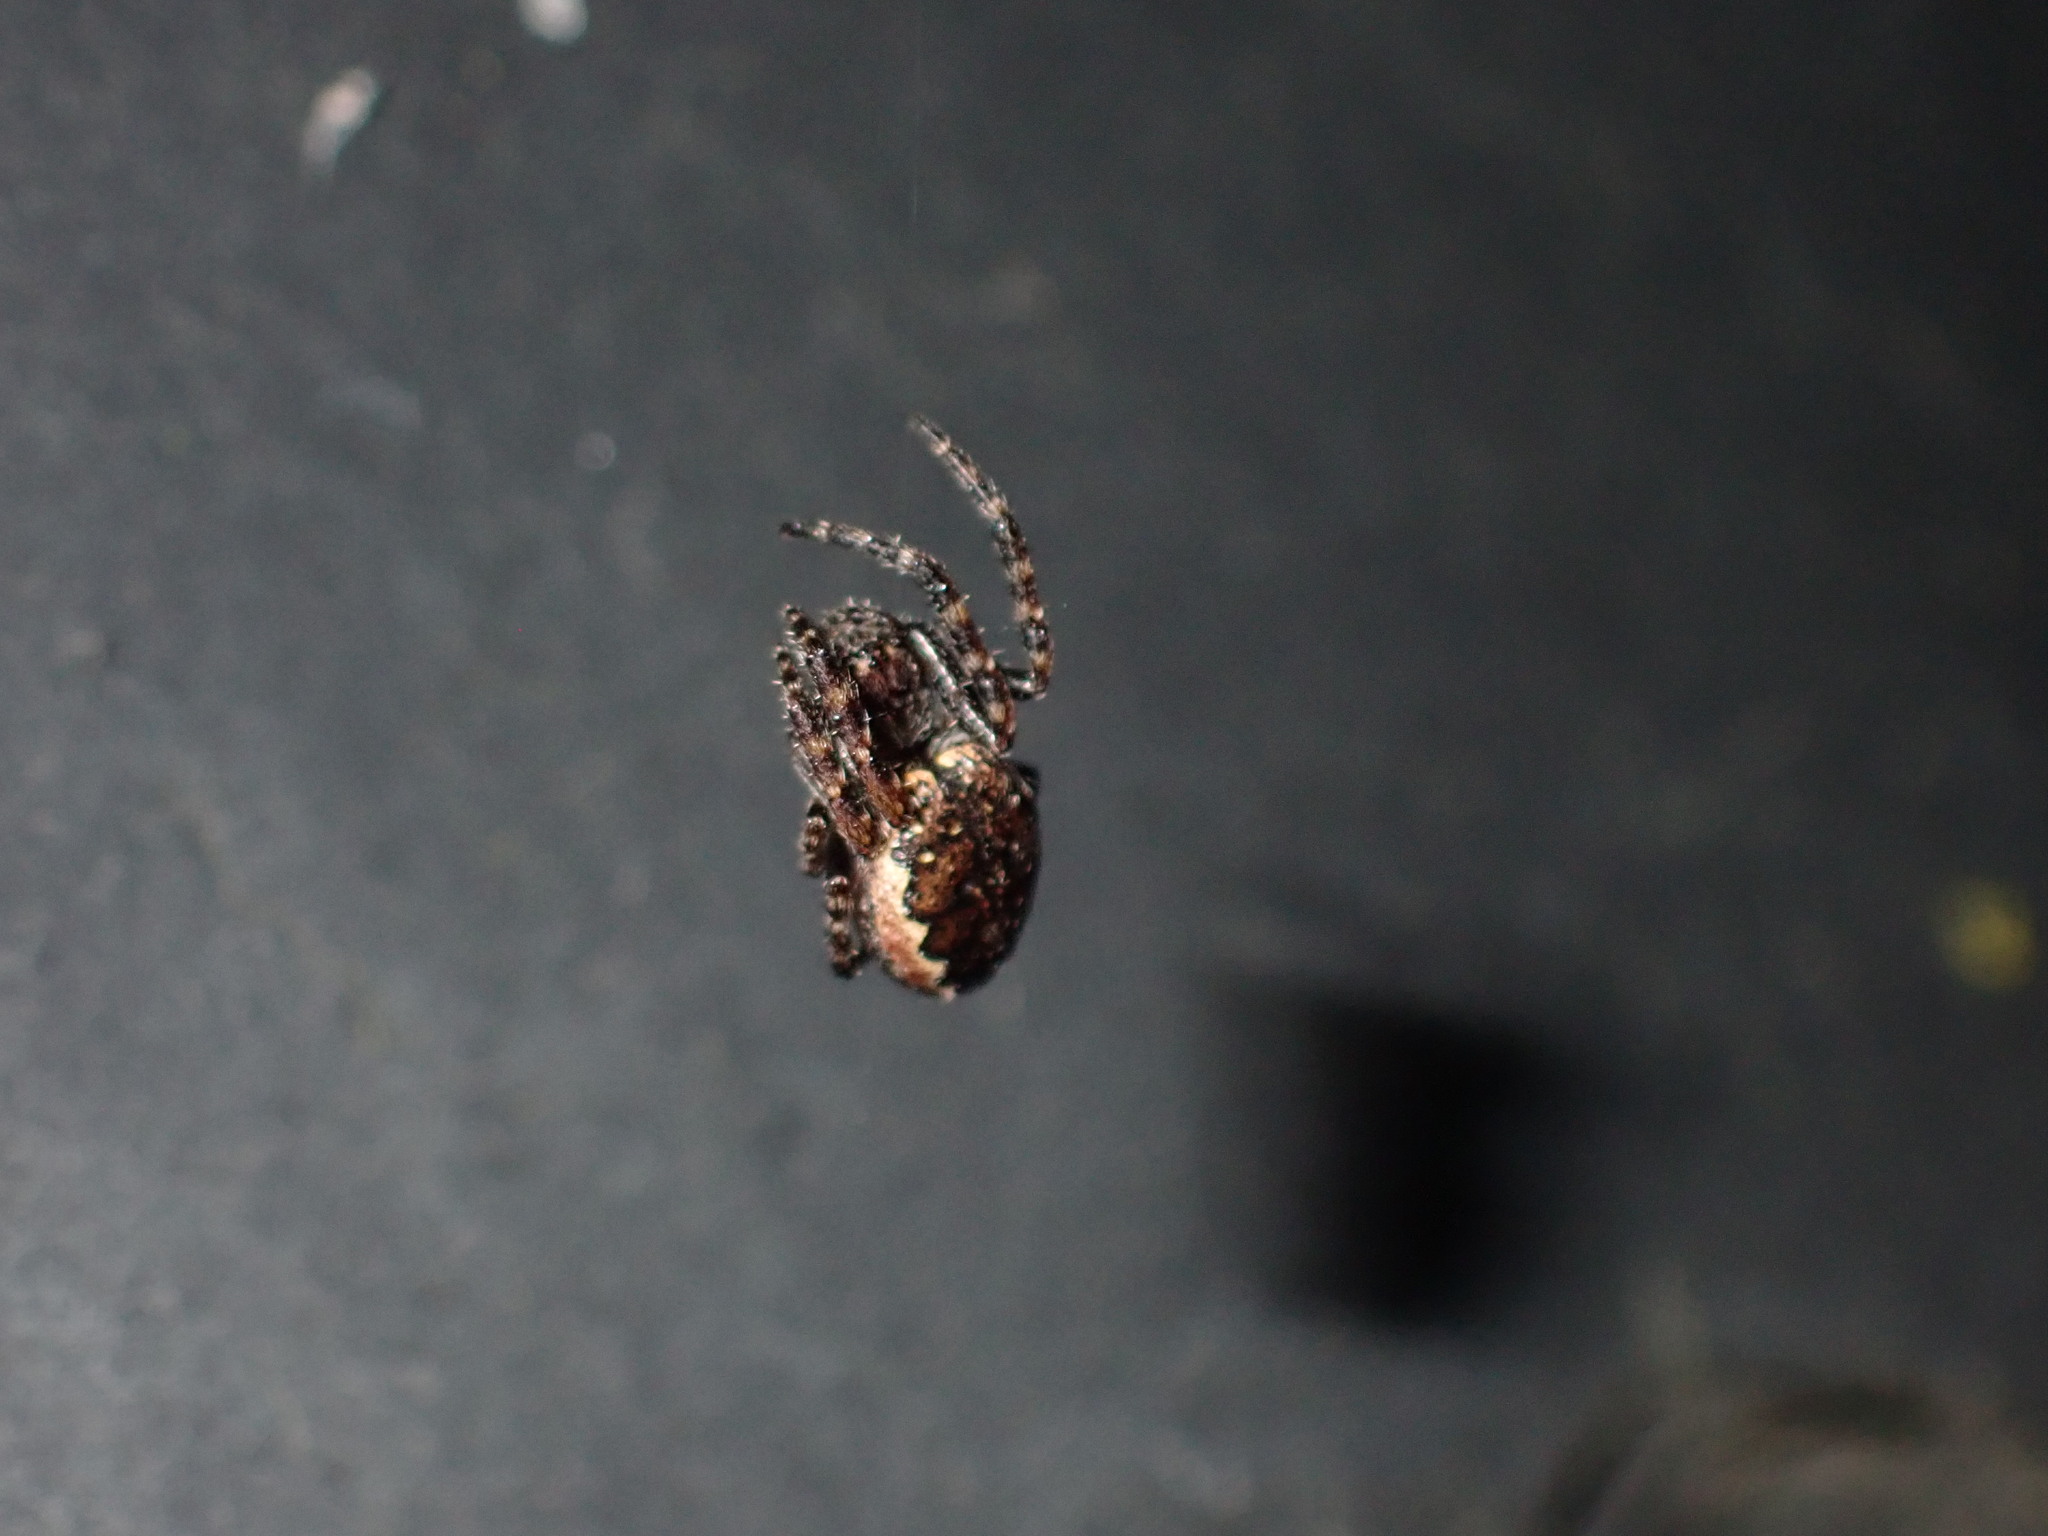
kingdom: Animalia
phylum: Arthropoda
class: Arachnida
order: Araneae
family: Araneidae
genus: Nuctenea
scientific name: Nuctenea umbratica
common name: Toad spider
